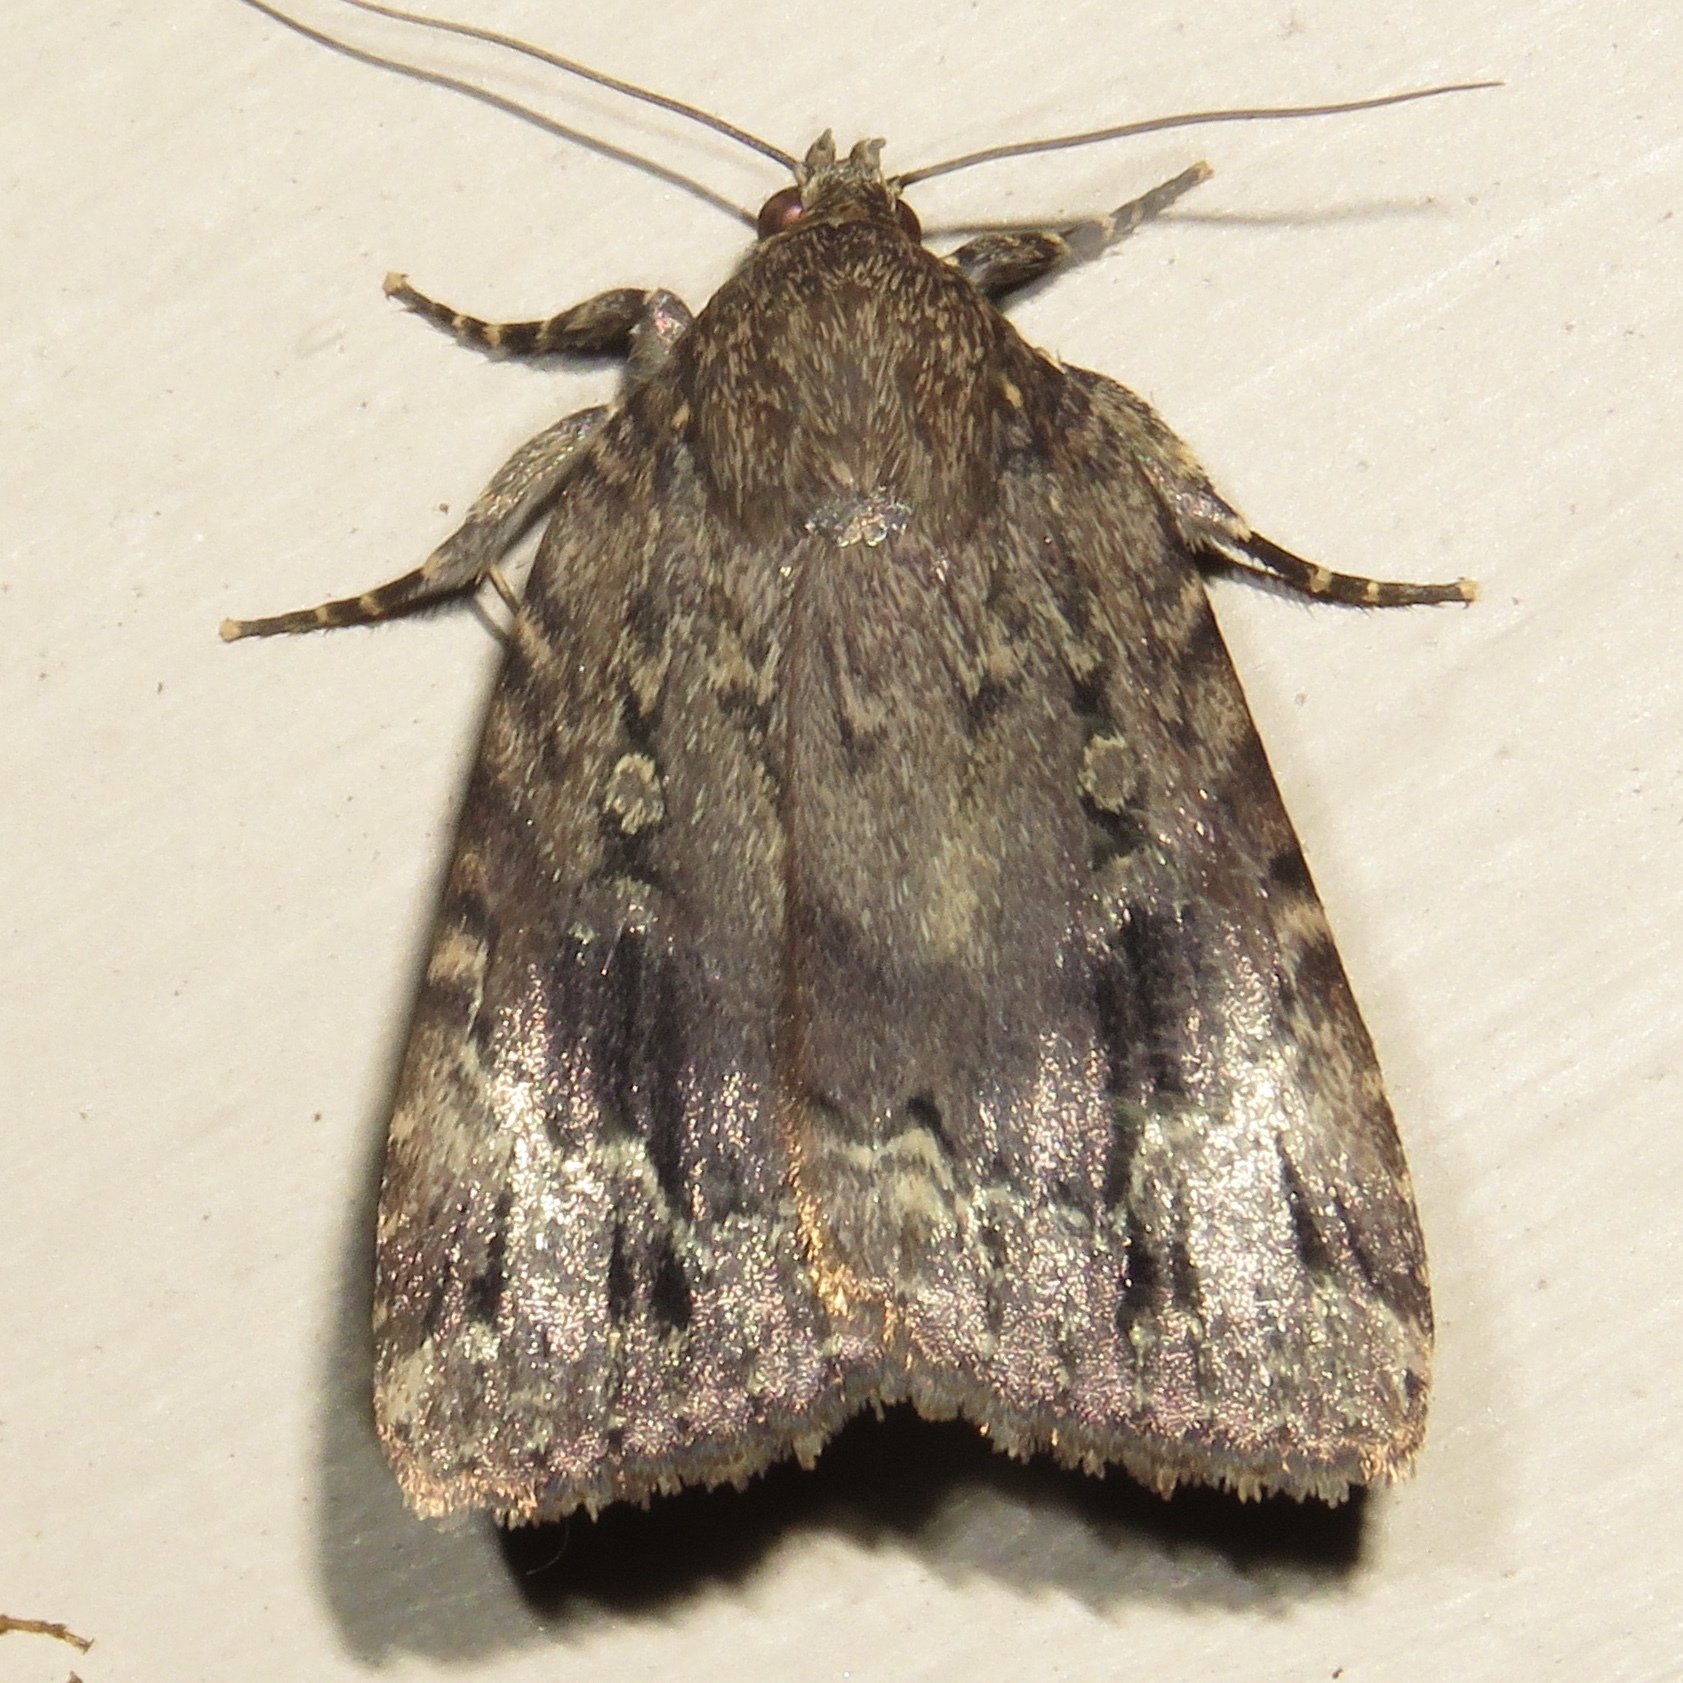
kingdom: Animalia
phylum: Arthropoda
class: Insecta
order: Lepidoptera
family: Noctuidae
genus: Amphipyra
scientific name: Amphipyra pyramidoides
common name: American copper underwing
